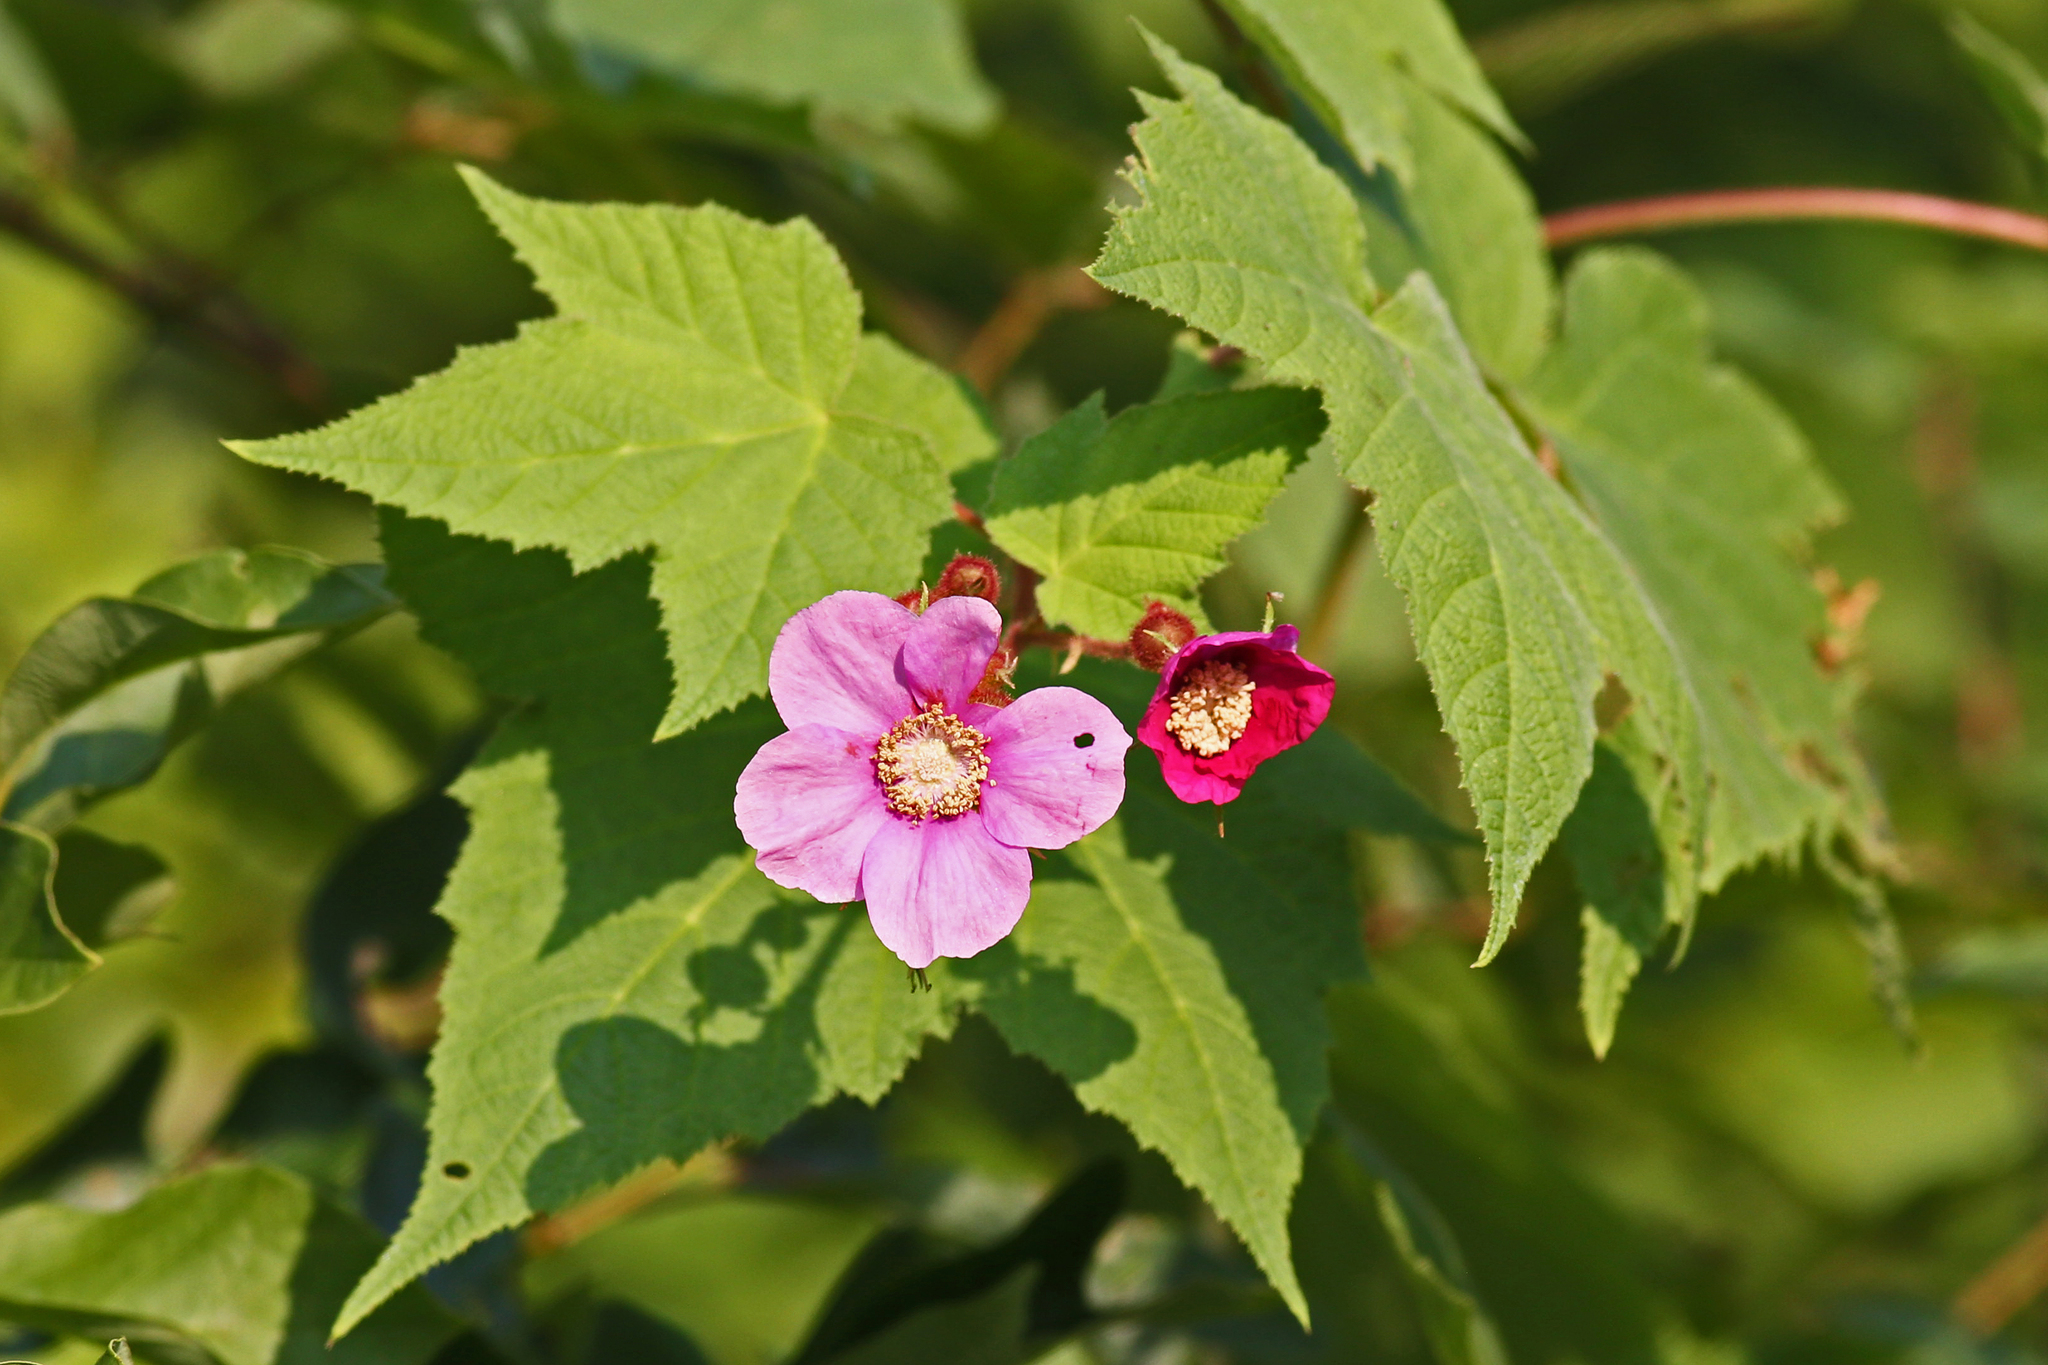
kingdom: Plantae
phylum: Tracheophyta
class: Magnoliopsida
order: Rosales
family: Rosaceae
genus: Rubus
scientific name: Rubus odoratus
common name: Purple-flowered raspberry
